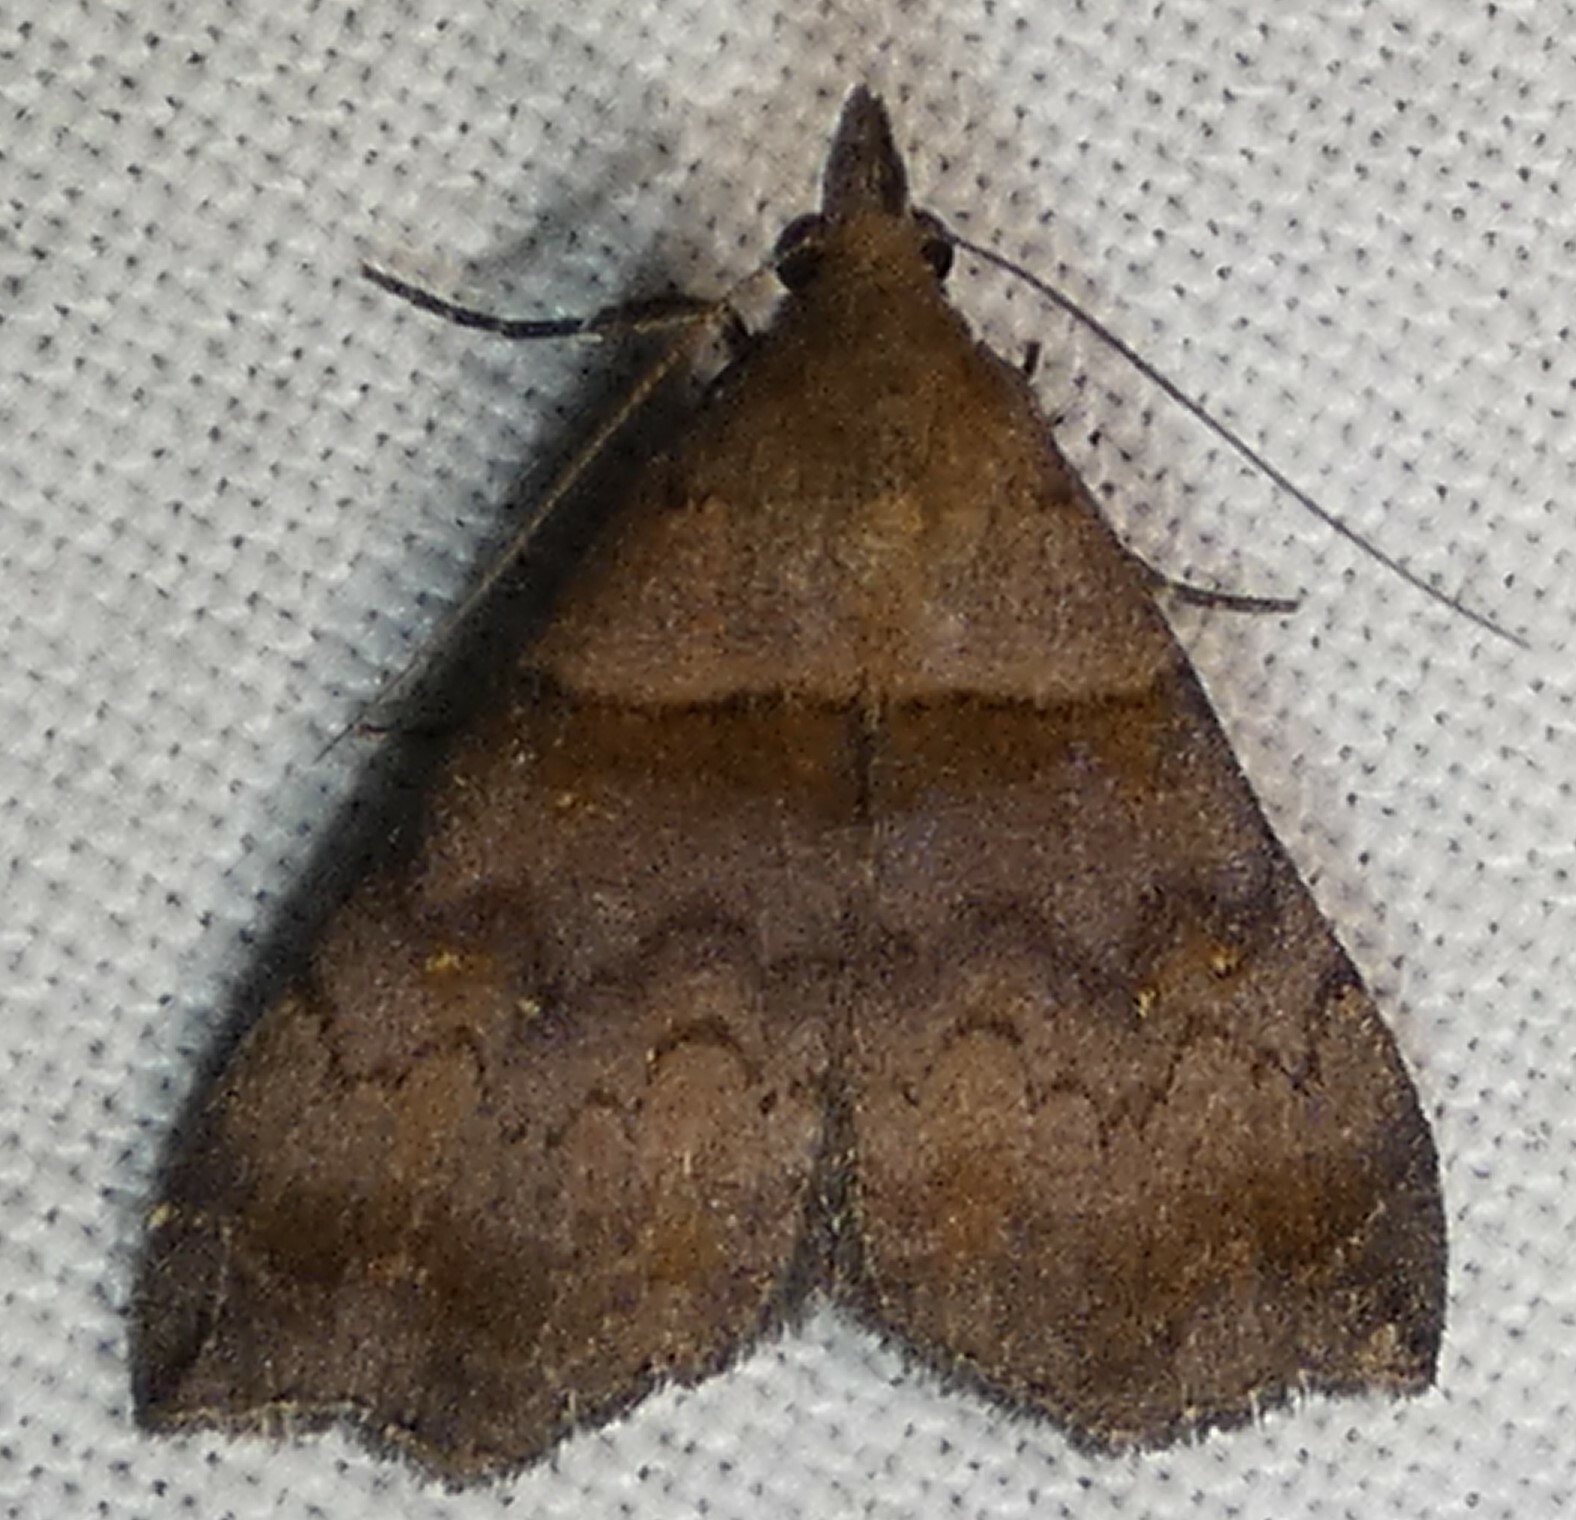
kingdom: Animalia
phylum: Arthropoda
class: Insecta
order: Lepidoptera
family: Erebidae
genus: Lascoria
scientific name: Lascoria ambigualis
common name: Ambiguous moth
